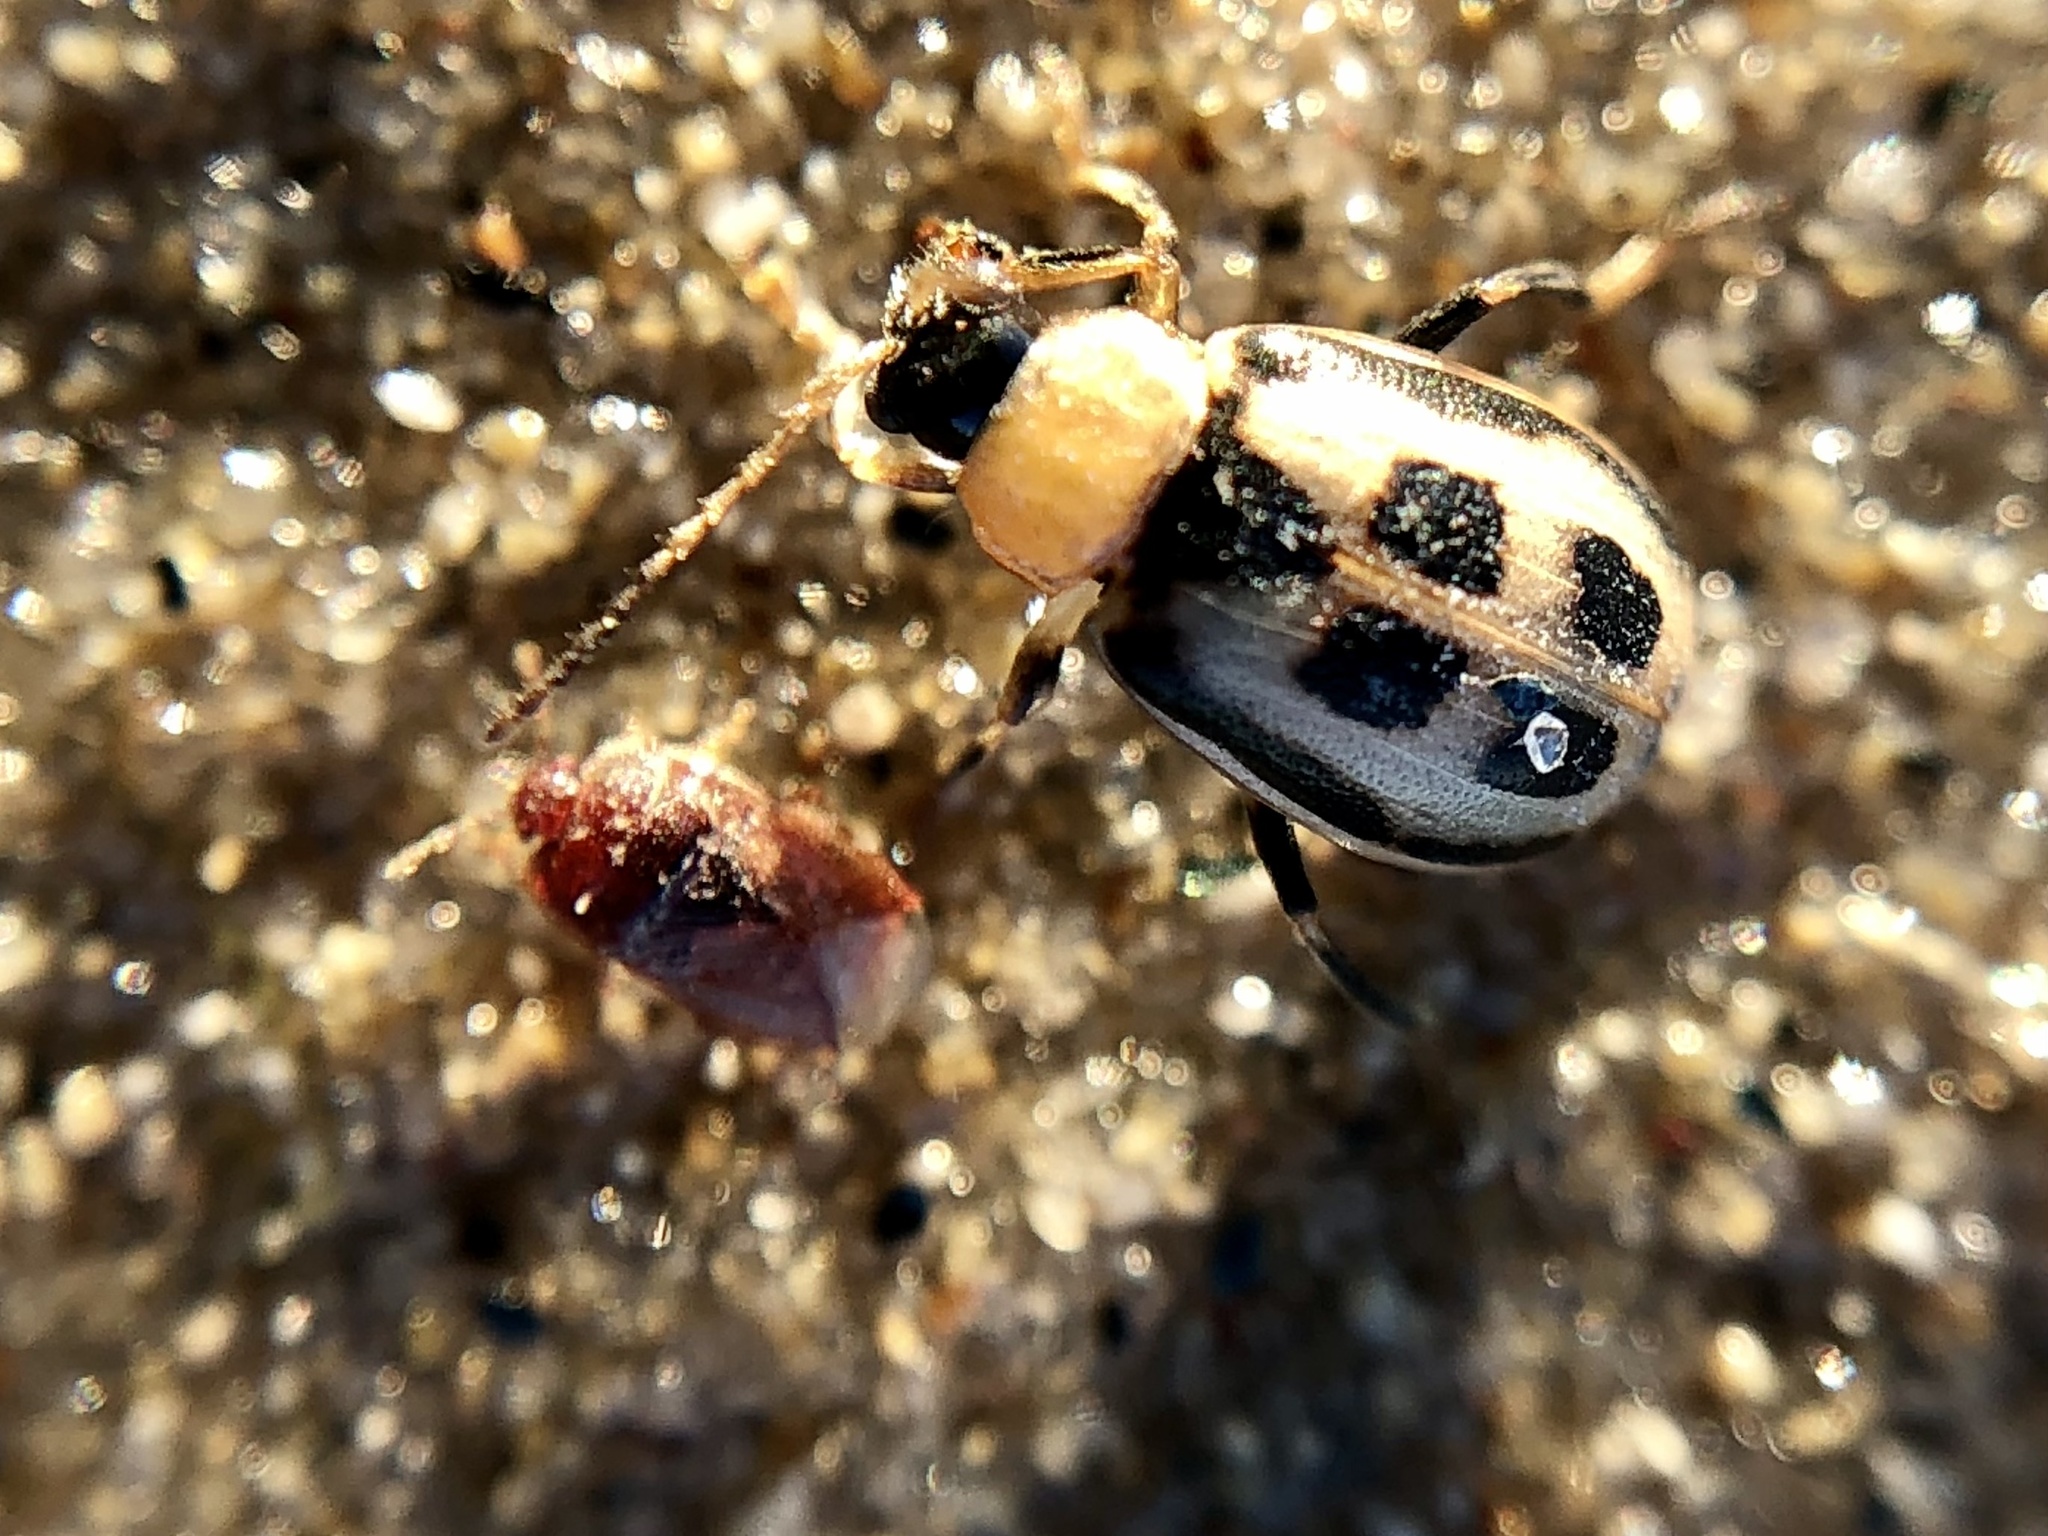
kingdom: Animalia
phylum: Arthropoda
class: Insecta
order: Coleoptera
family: Chrysomelidae
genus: Cerotoma
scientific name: Cerotoma trifurcata
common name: Bean leaf beetle
